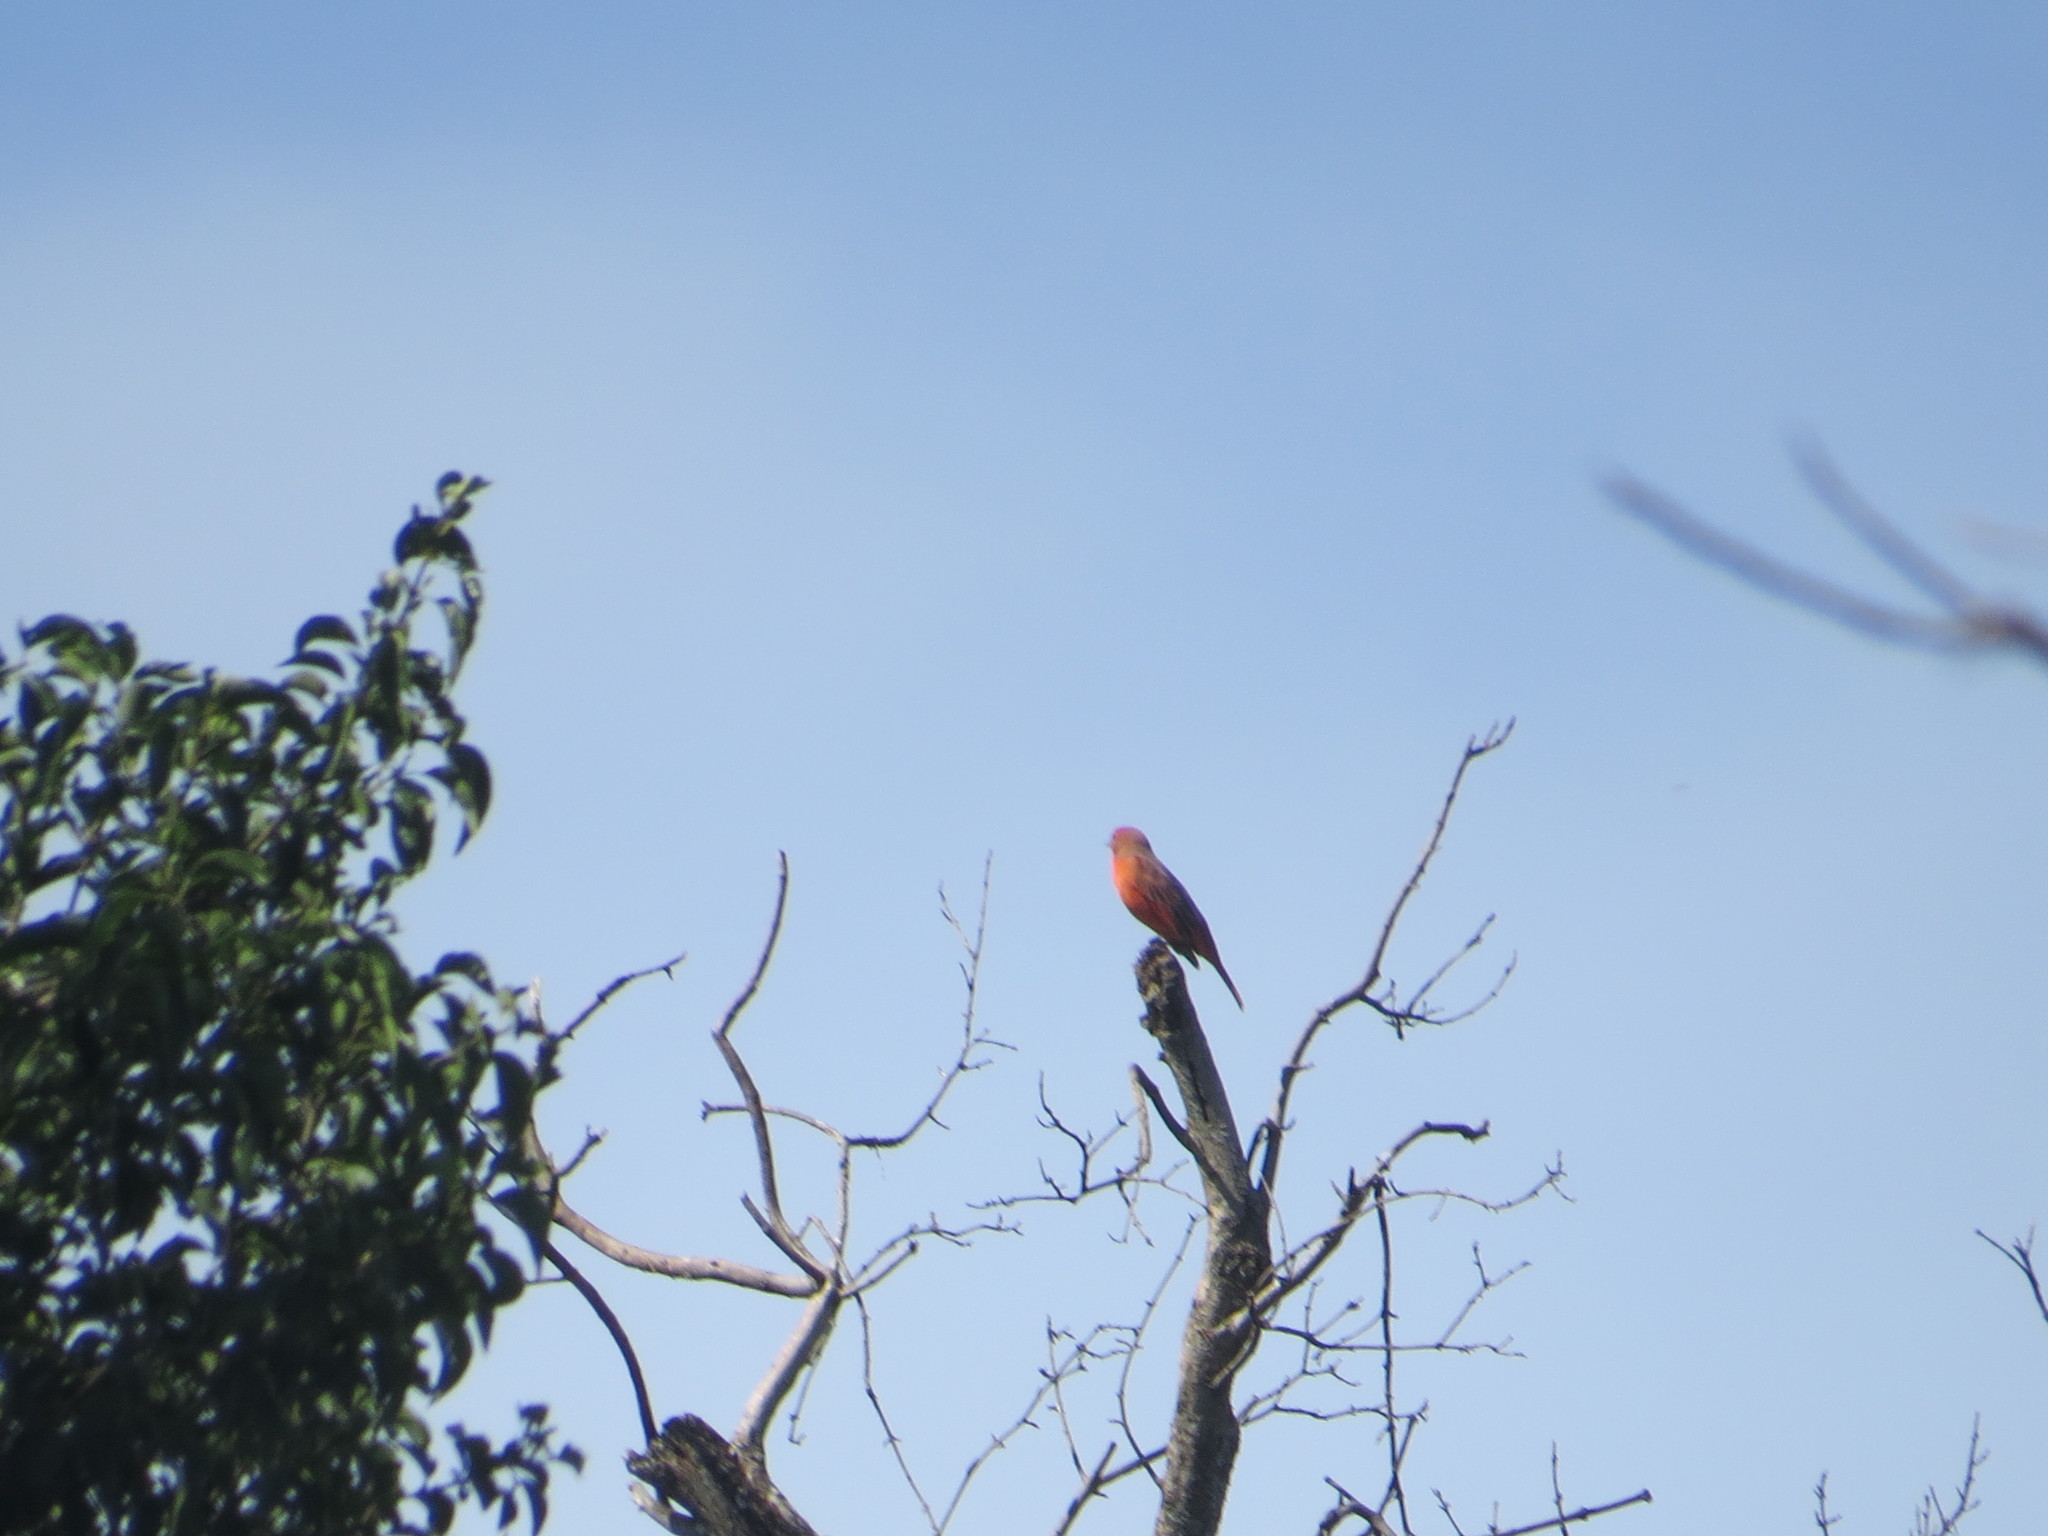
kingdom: Animalia
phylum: Chordata
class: Aves
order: Passeriformes
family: Cardinalidae
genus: Piranga
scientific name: Piranga flava
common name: Red tanager
